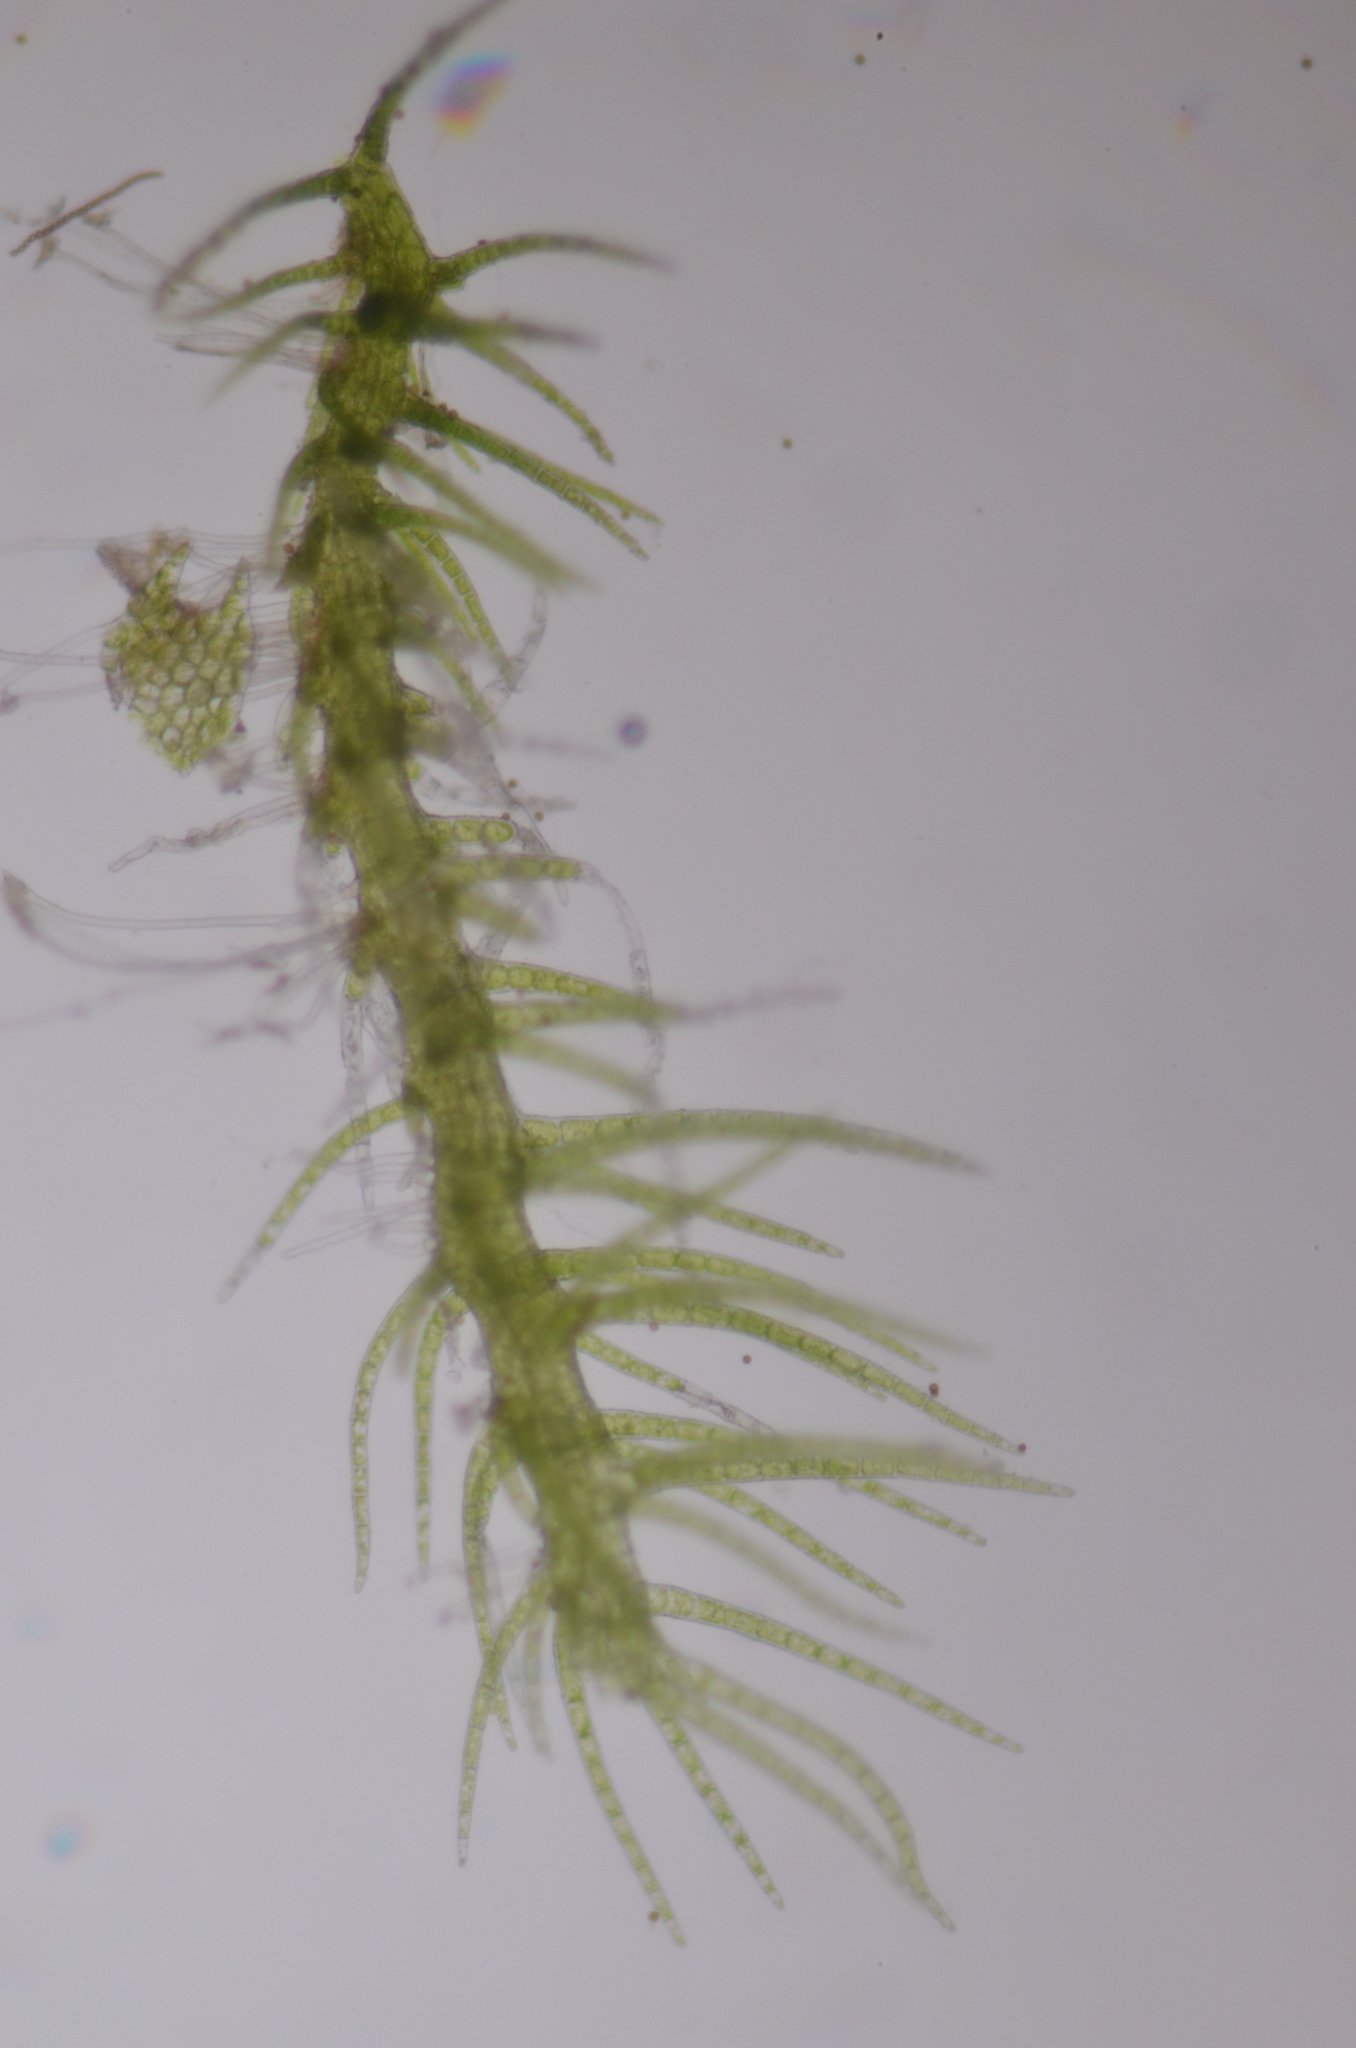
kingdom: Plantae
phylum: Marchantiophyta
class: Jungermanniopsida
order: Jungermanniales
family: Blepharostomataceae
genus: Blepharostoma
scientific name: Blepharostoma trichophyllum
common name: Hairy threadwort
